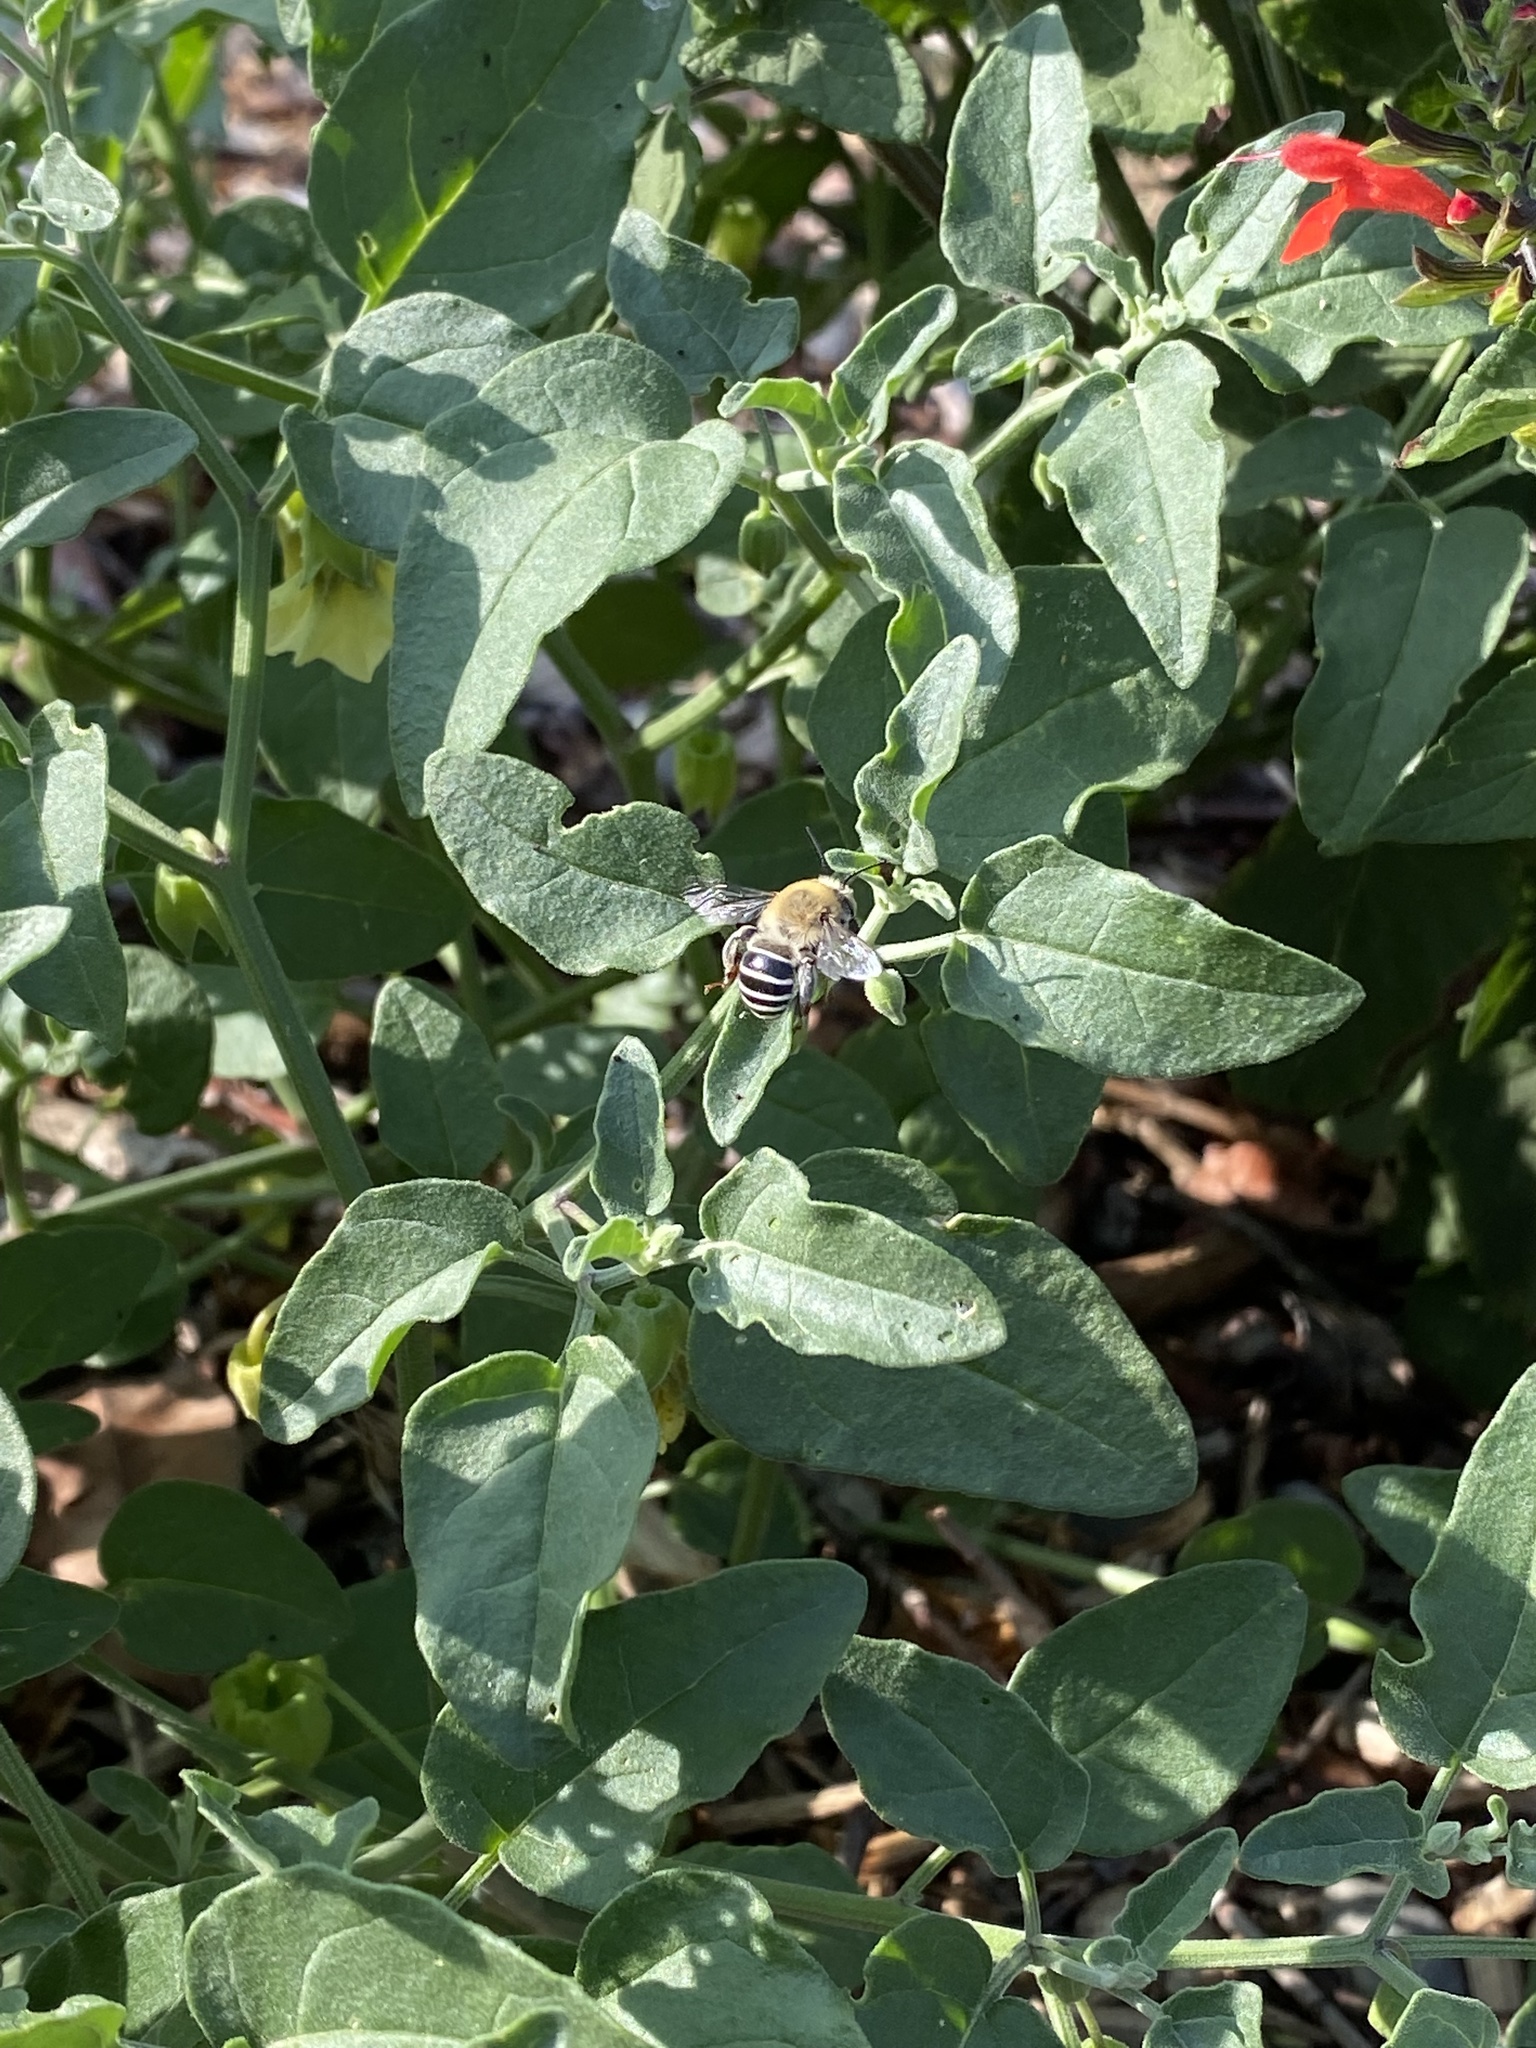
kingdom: Animalia
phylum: Arthropoda
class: Insecta
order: Hymenoptera
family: Apidae
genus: Anthophora
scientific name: Anthophora californica
